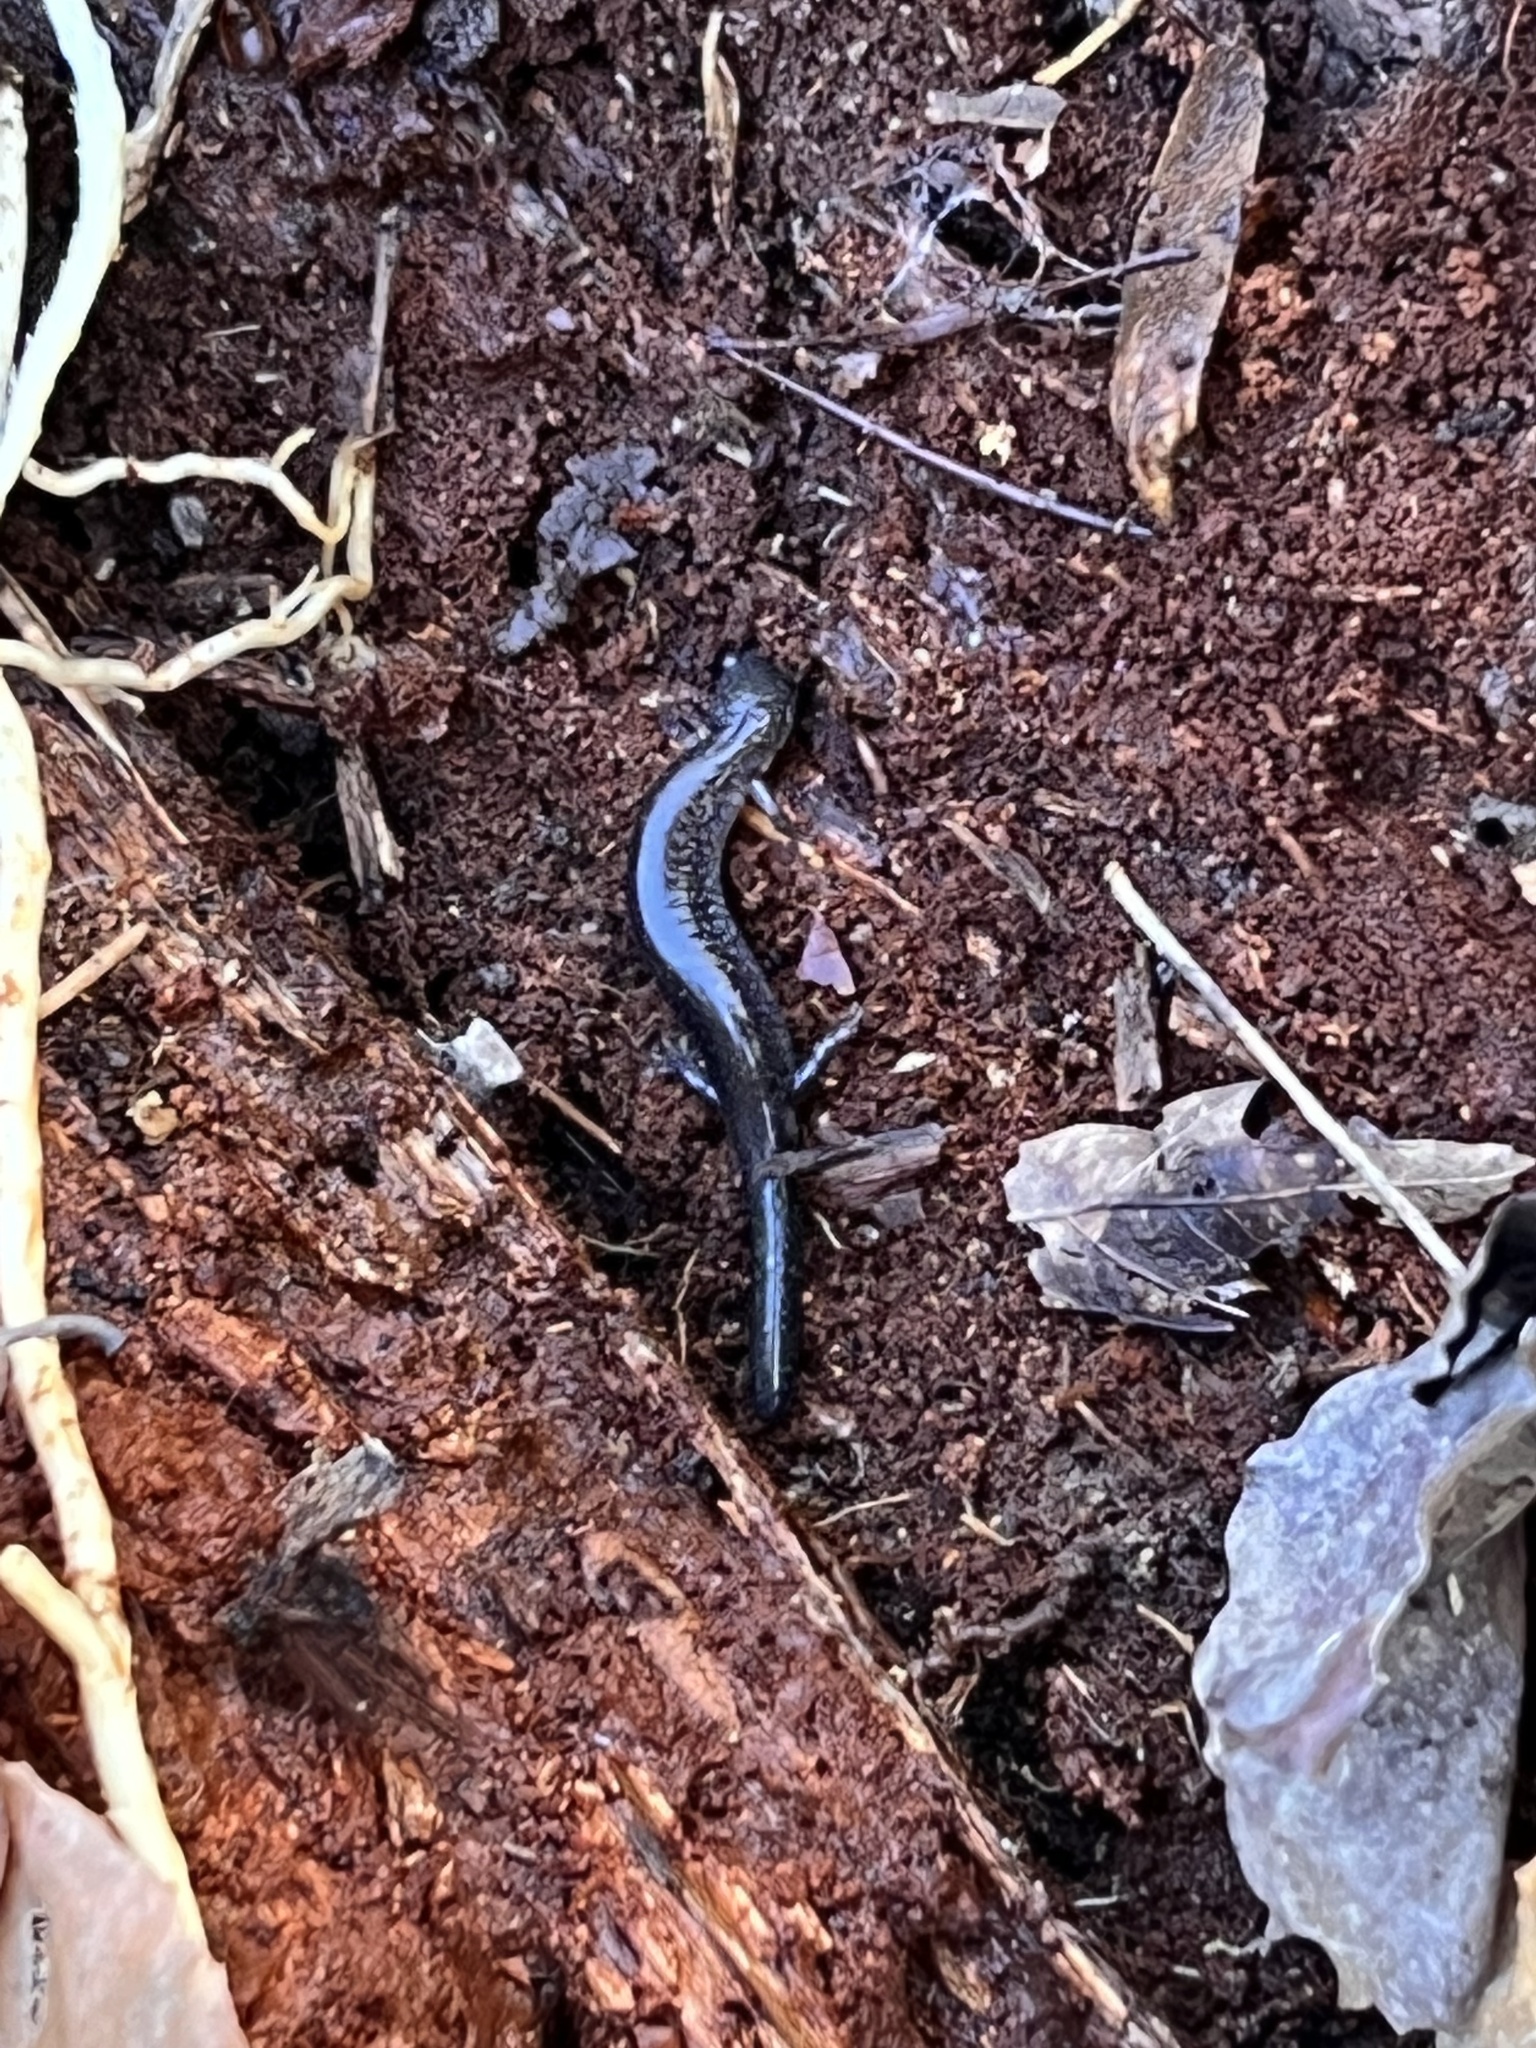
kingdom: Animalia
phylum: Chordata
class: Amphibia
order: Caudata
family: Plethodontidae
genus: Plethodon
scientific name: Plethodon cinereus
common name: Redback salamander
